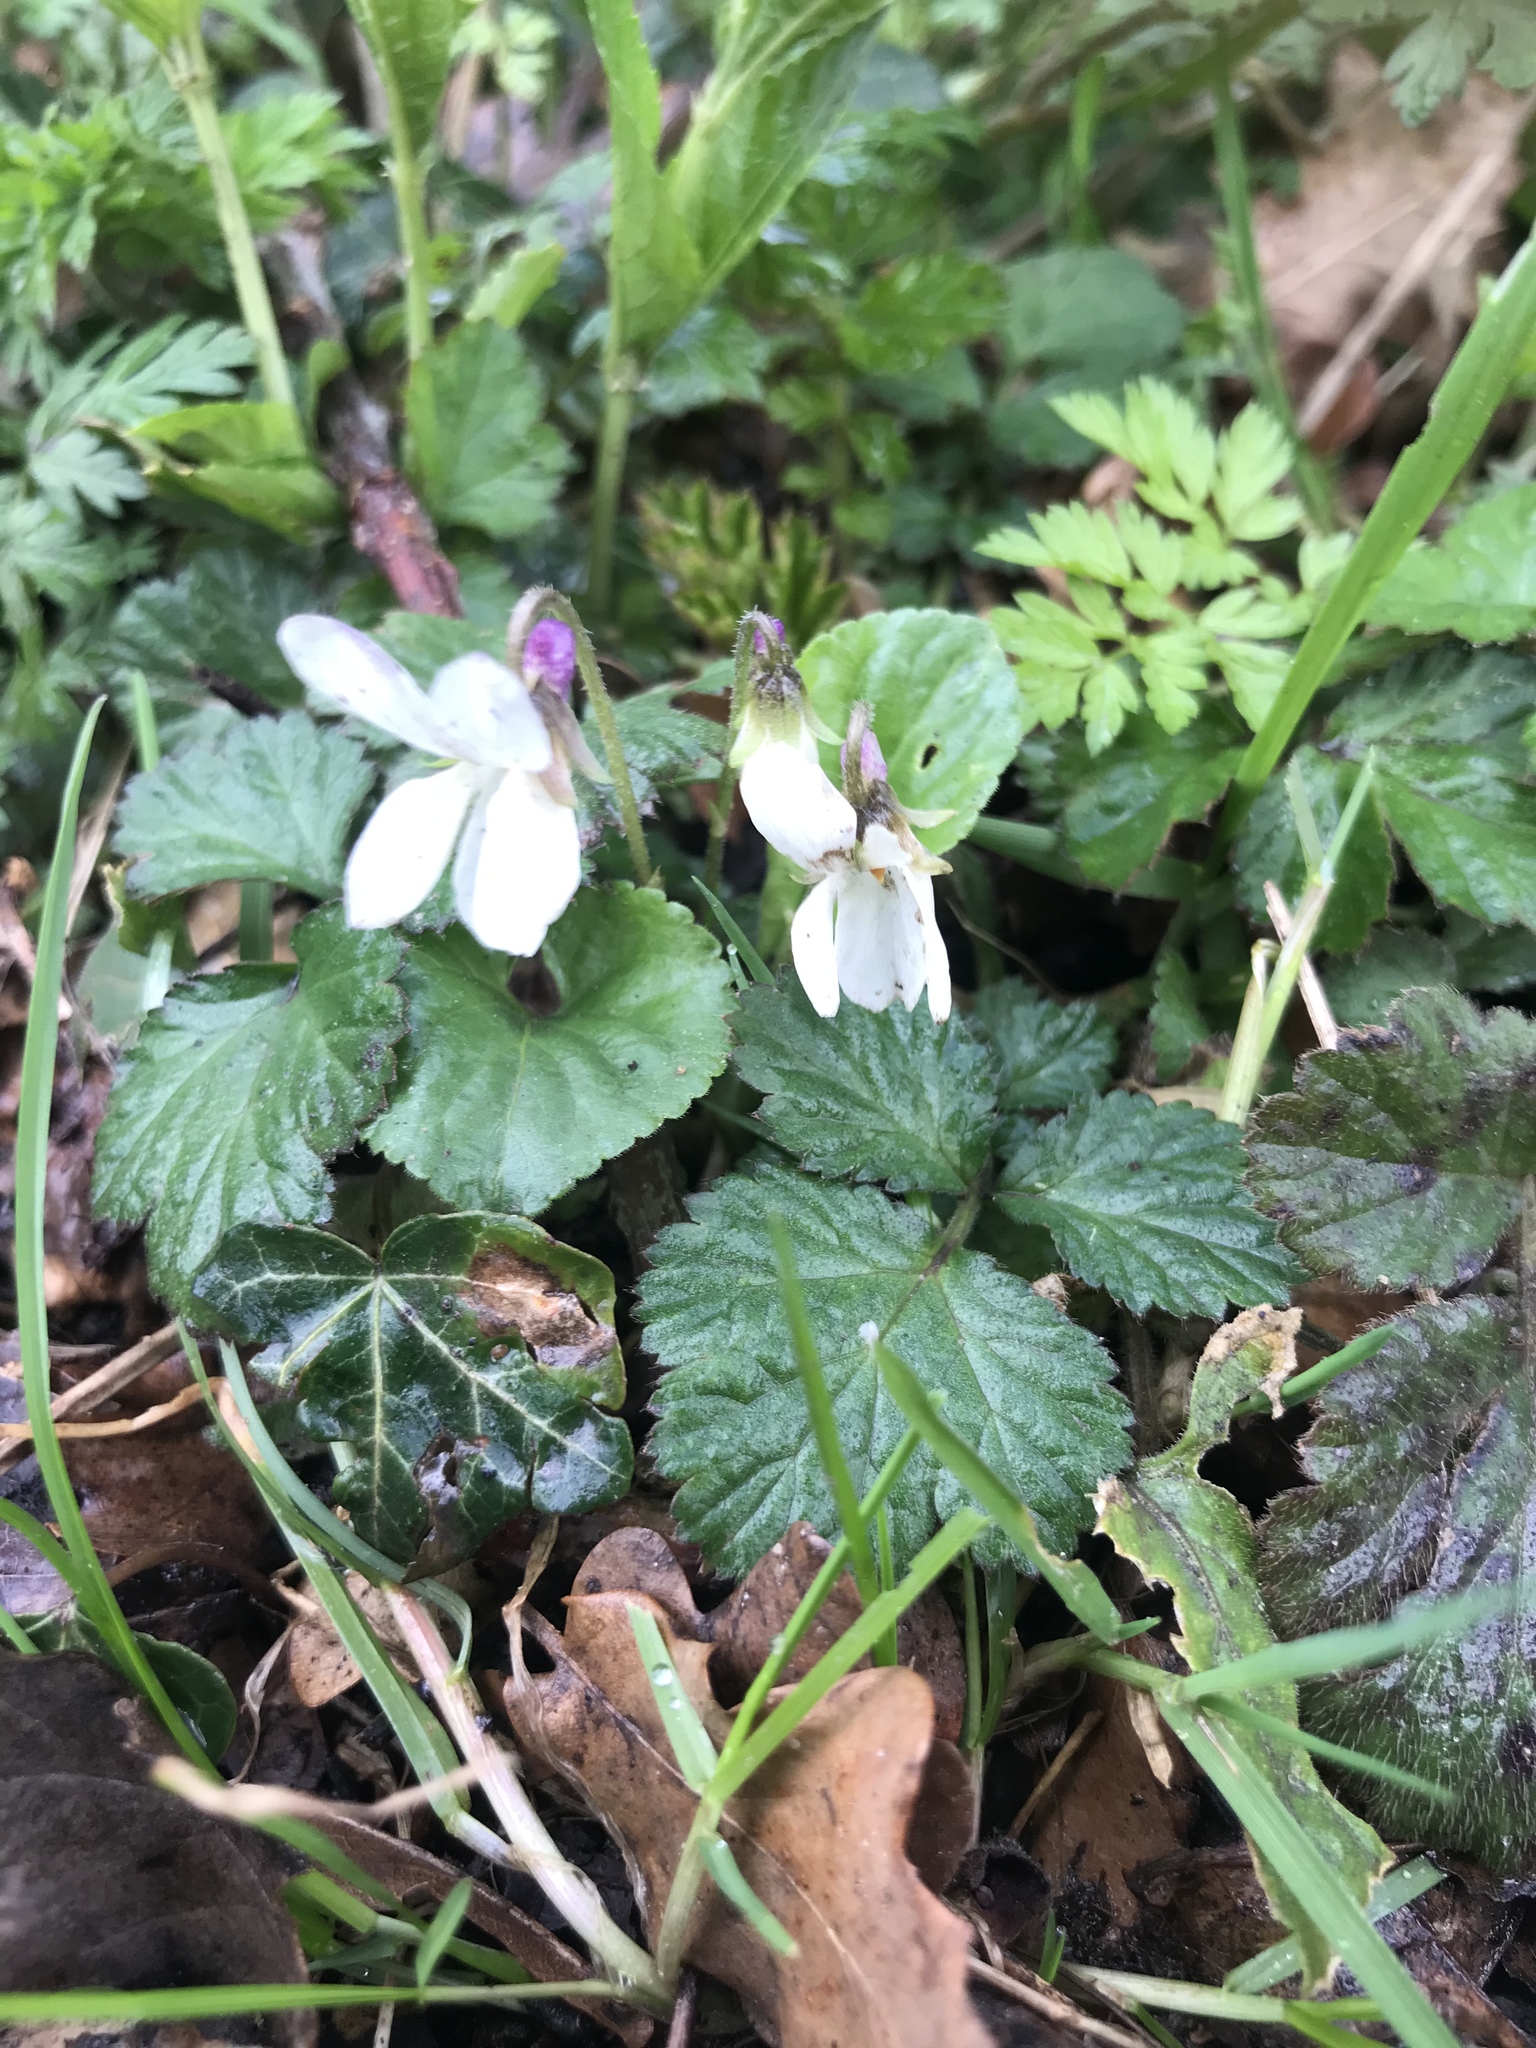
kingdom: Plantae
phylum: Tracheophyta
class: Magnoliopsida
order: Malpighiales
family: Violaceae
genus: Viola
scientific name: Viola odorata
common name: Sweet violet
